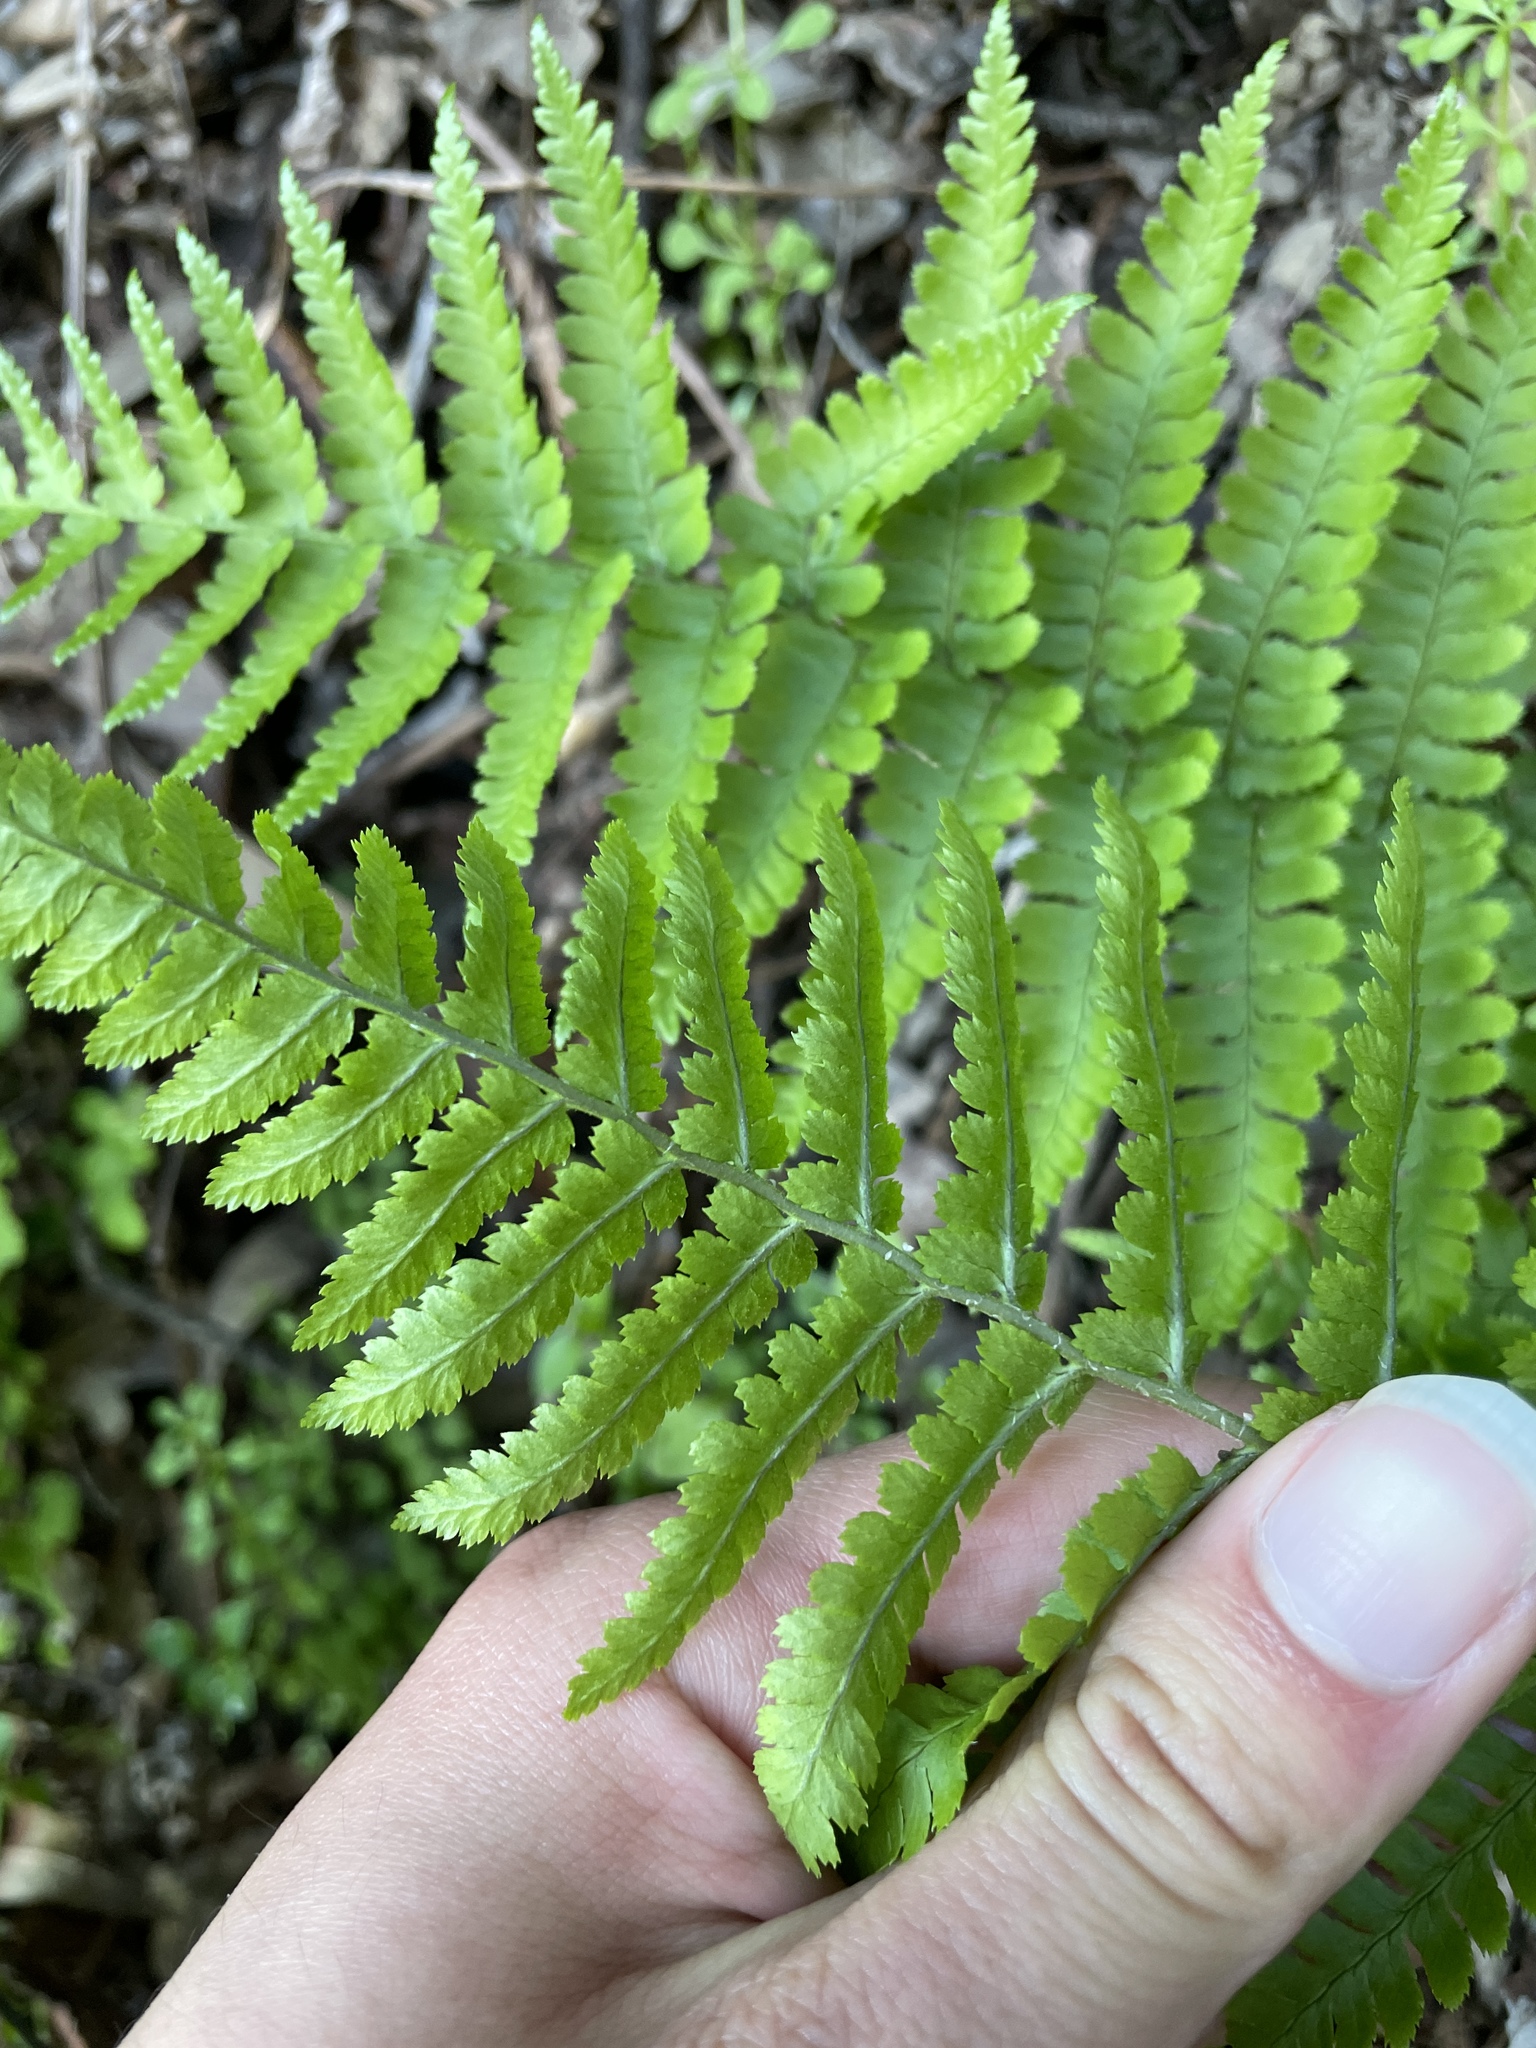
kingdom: Plantae
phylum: Tracheophyta
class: Polypodiopsida
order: Polypodiales
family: Dryopteridaceae
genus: Dryopteris
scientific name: Dryopteris arguta
